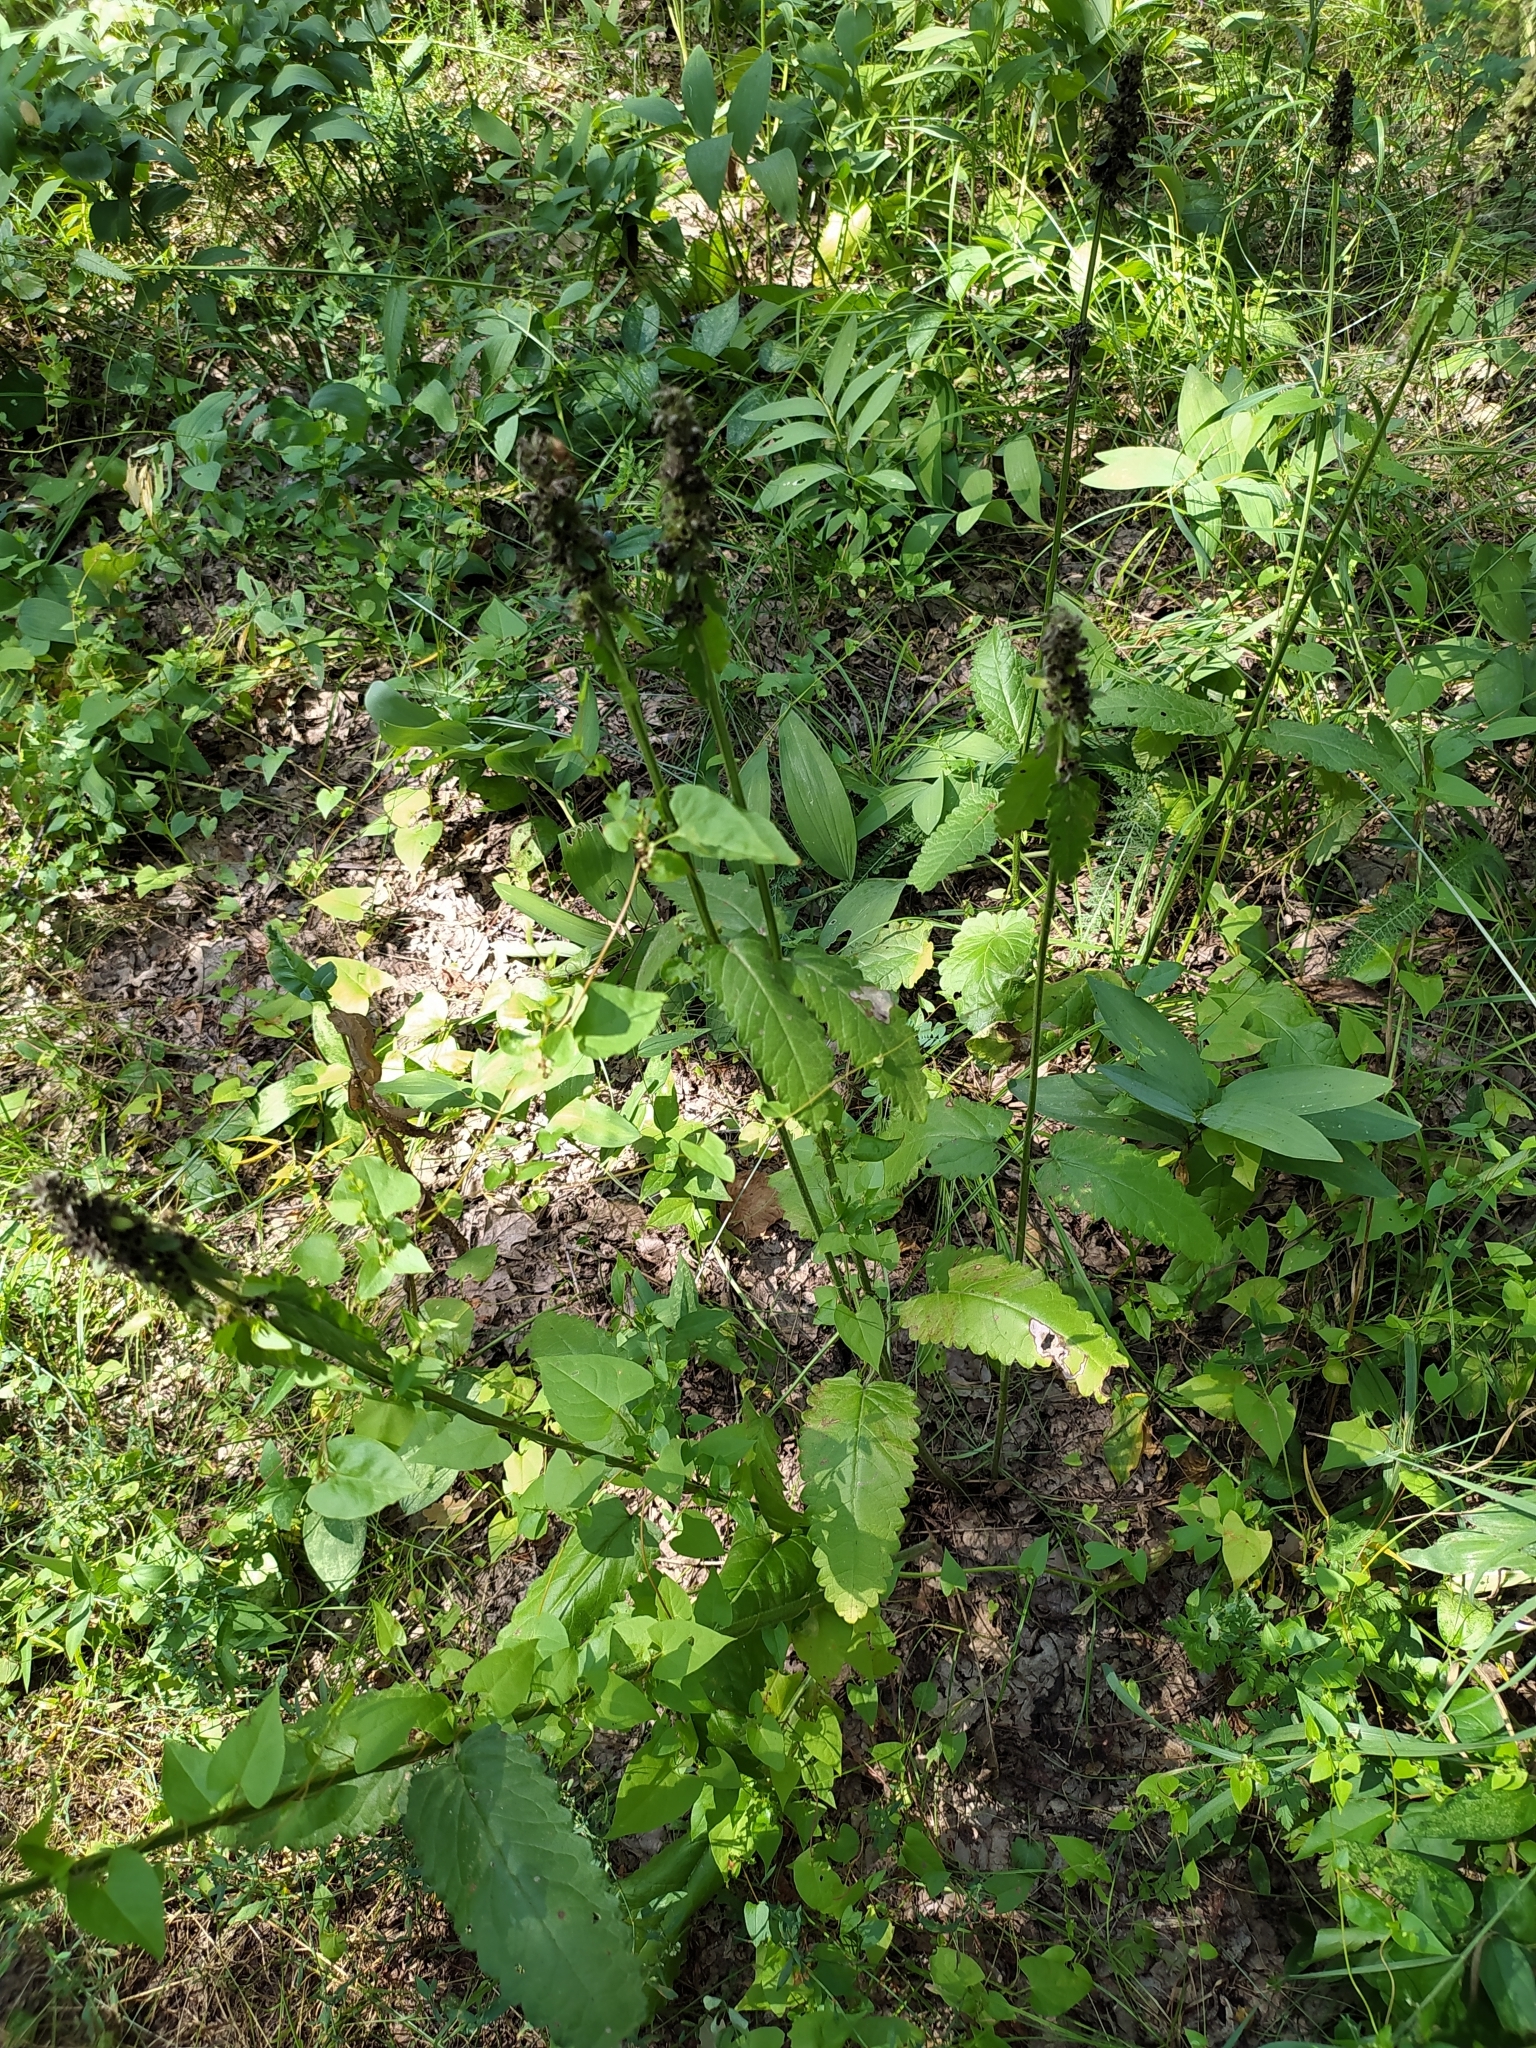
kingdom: Plantae
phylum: Tracheophyta
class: Magnoliopsida
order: Lamiales
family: Lamiaceae
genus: Betonica
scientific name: Betonica officinalis
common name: Bishop's-wort
